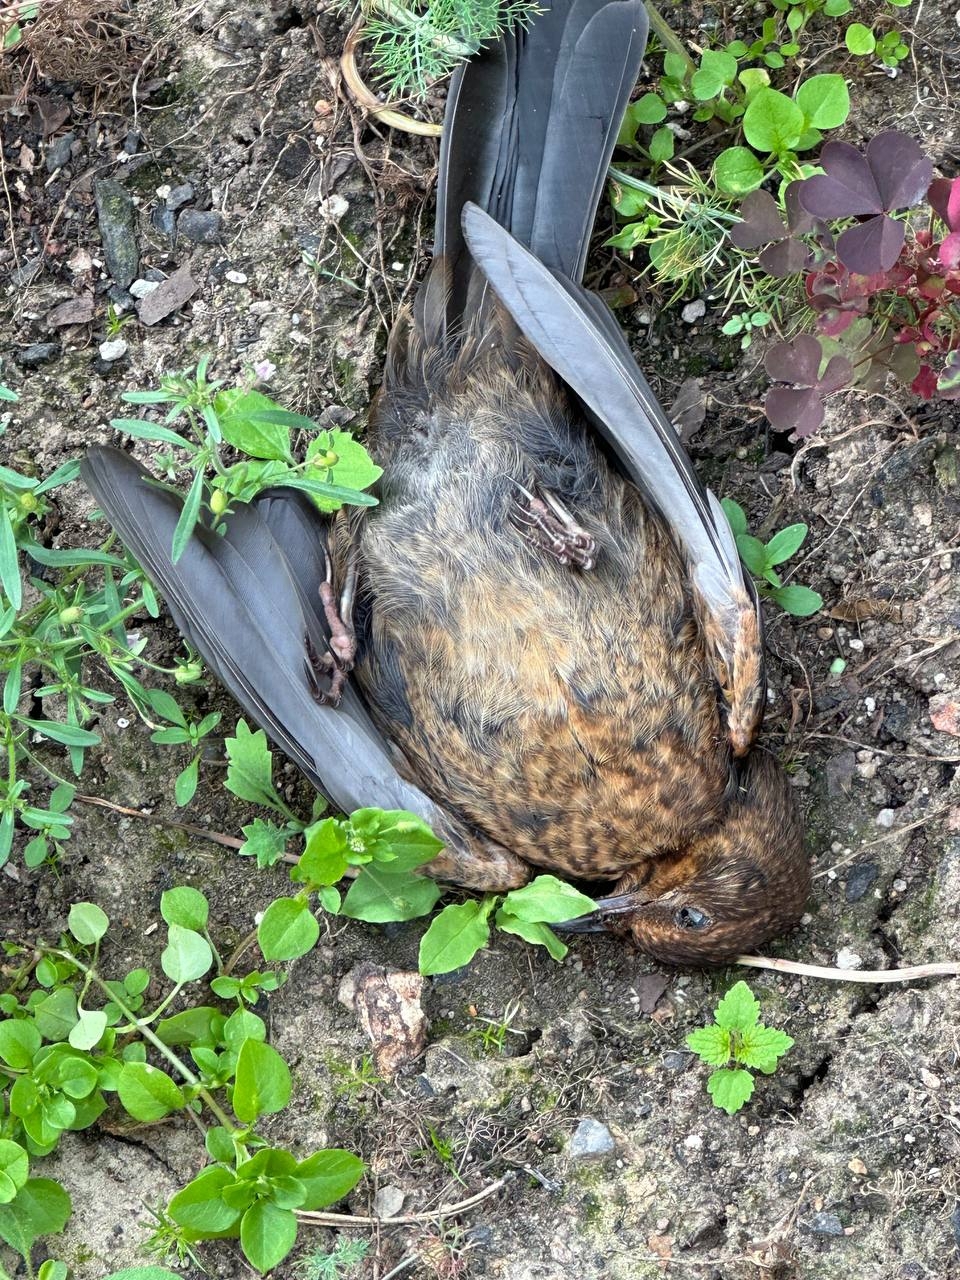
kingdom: Animalia
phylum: Chordata
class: Aves
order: Passeriformes
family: Turdidae
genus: Turdus
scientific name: Turdus merula
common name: Common blackbird
